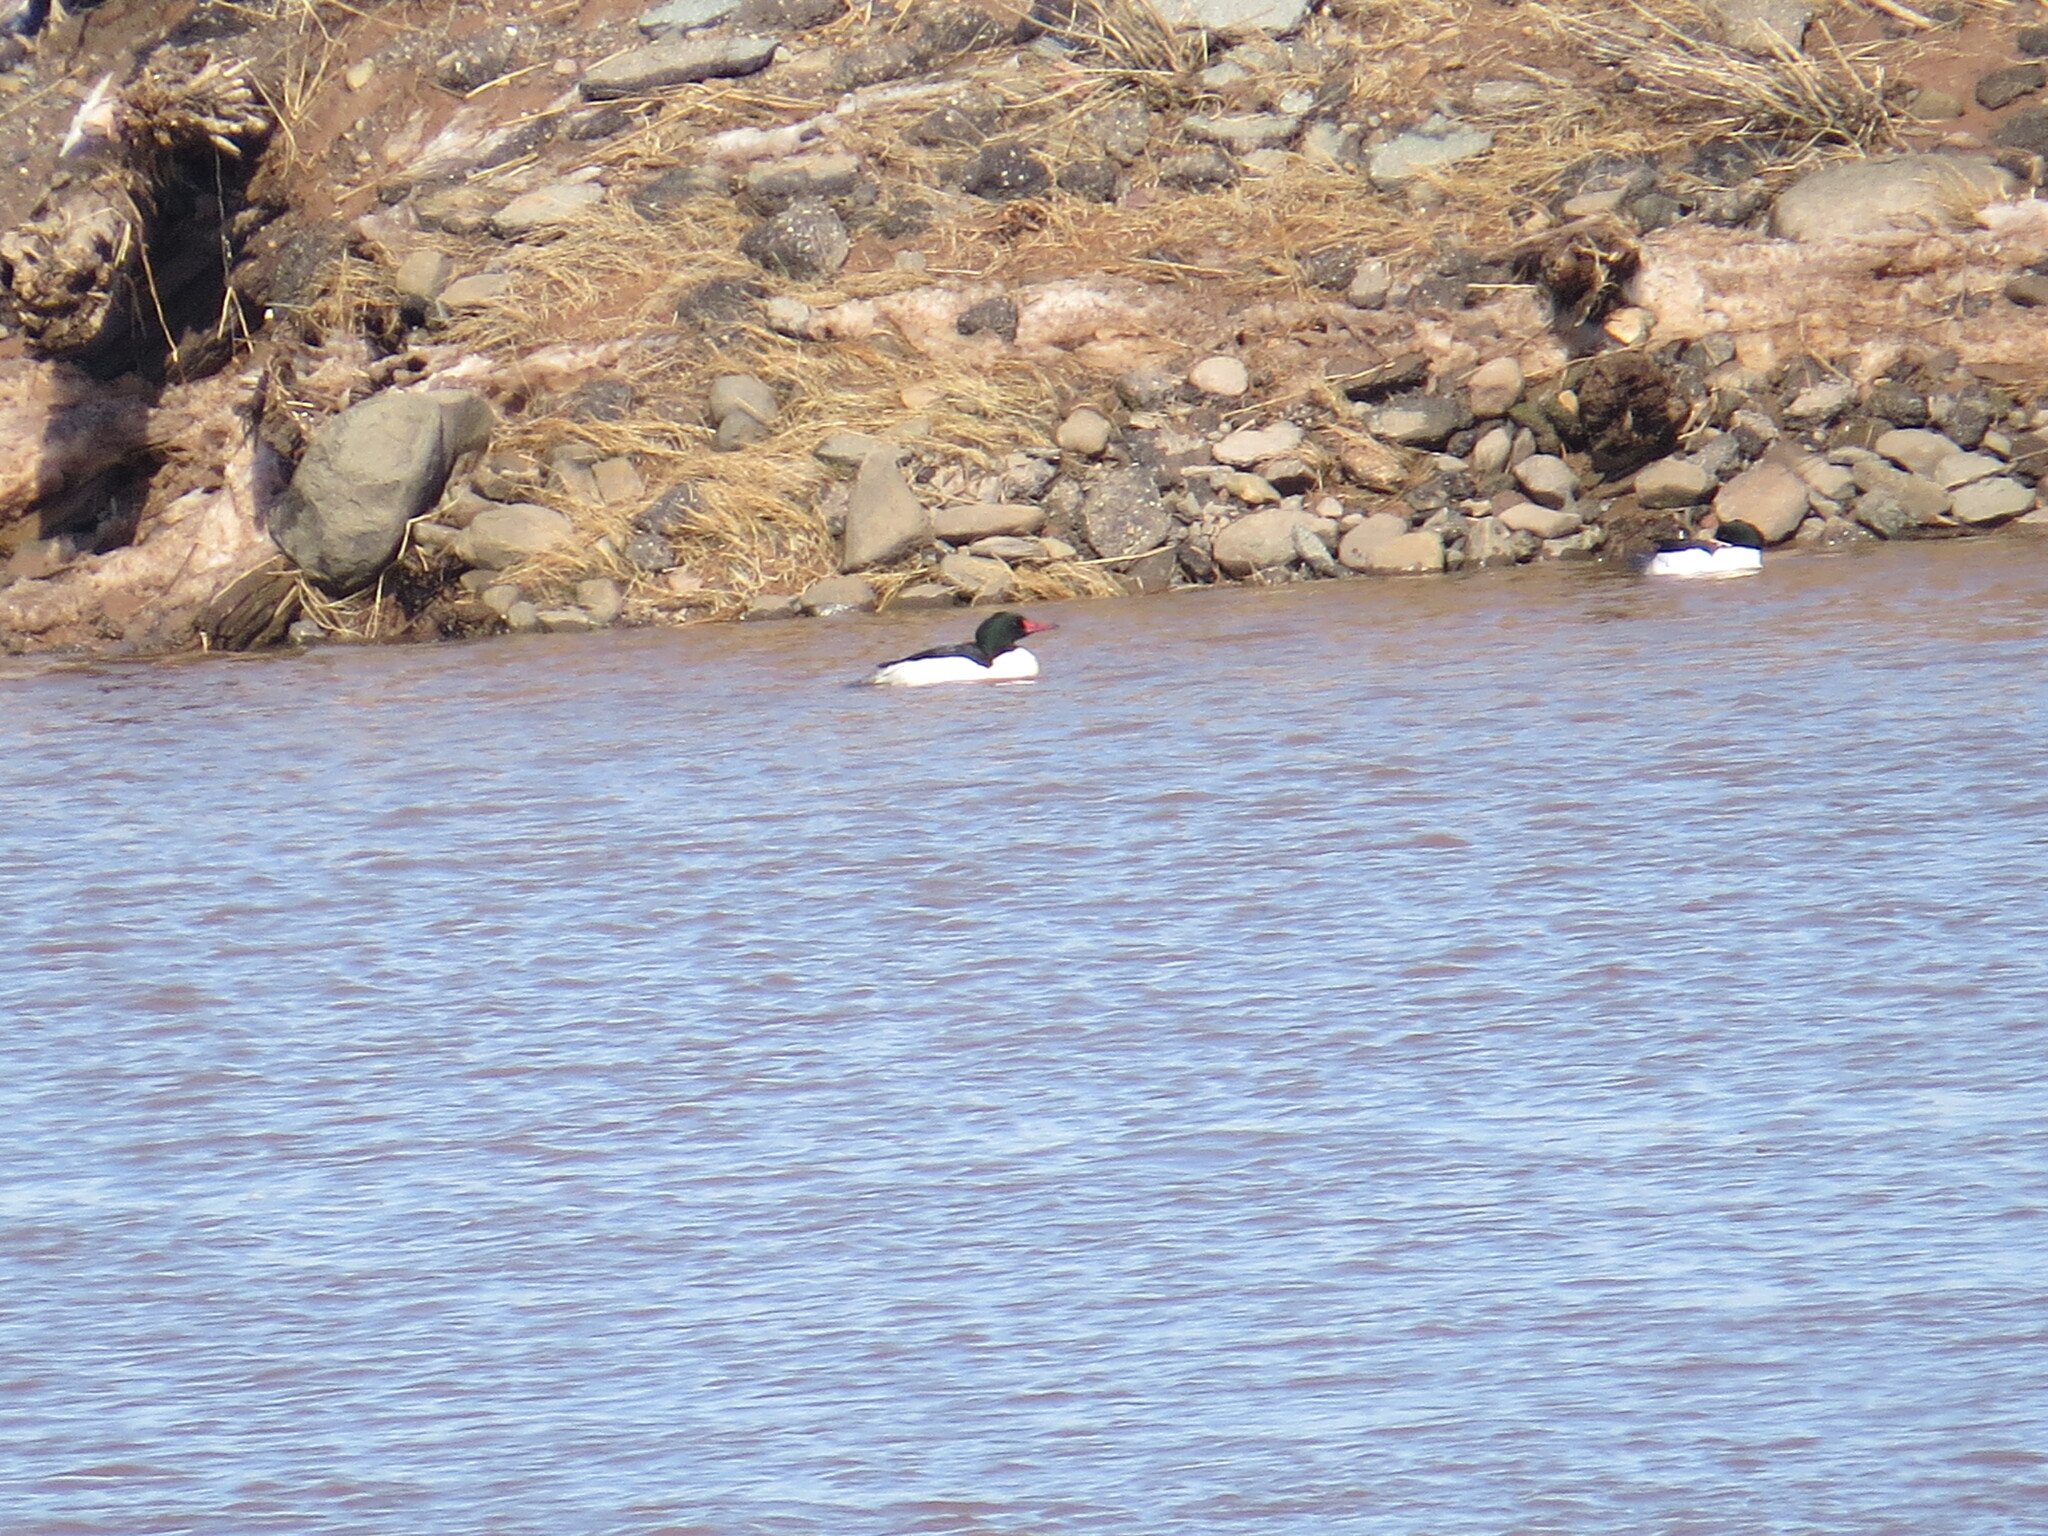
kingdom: Animalia
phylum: Chordata
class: Aves
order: Anseriformes
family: Anatidae
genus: Mergus
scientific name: Mergus merganser
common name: Common merganser
